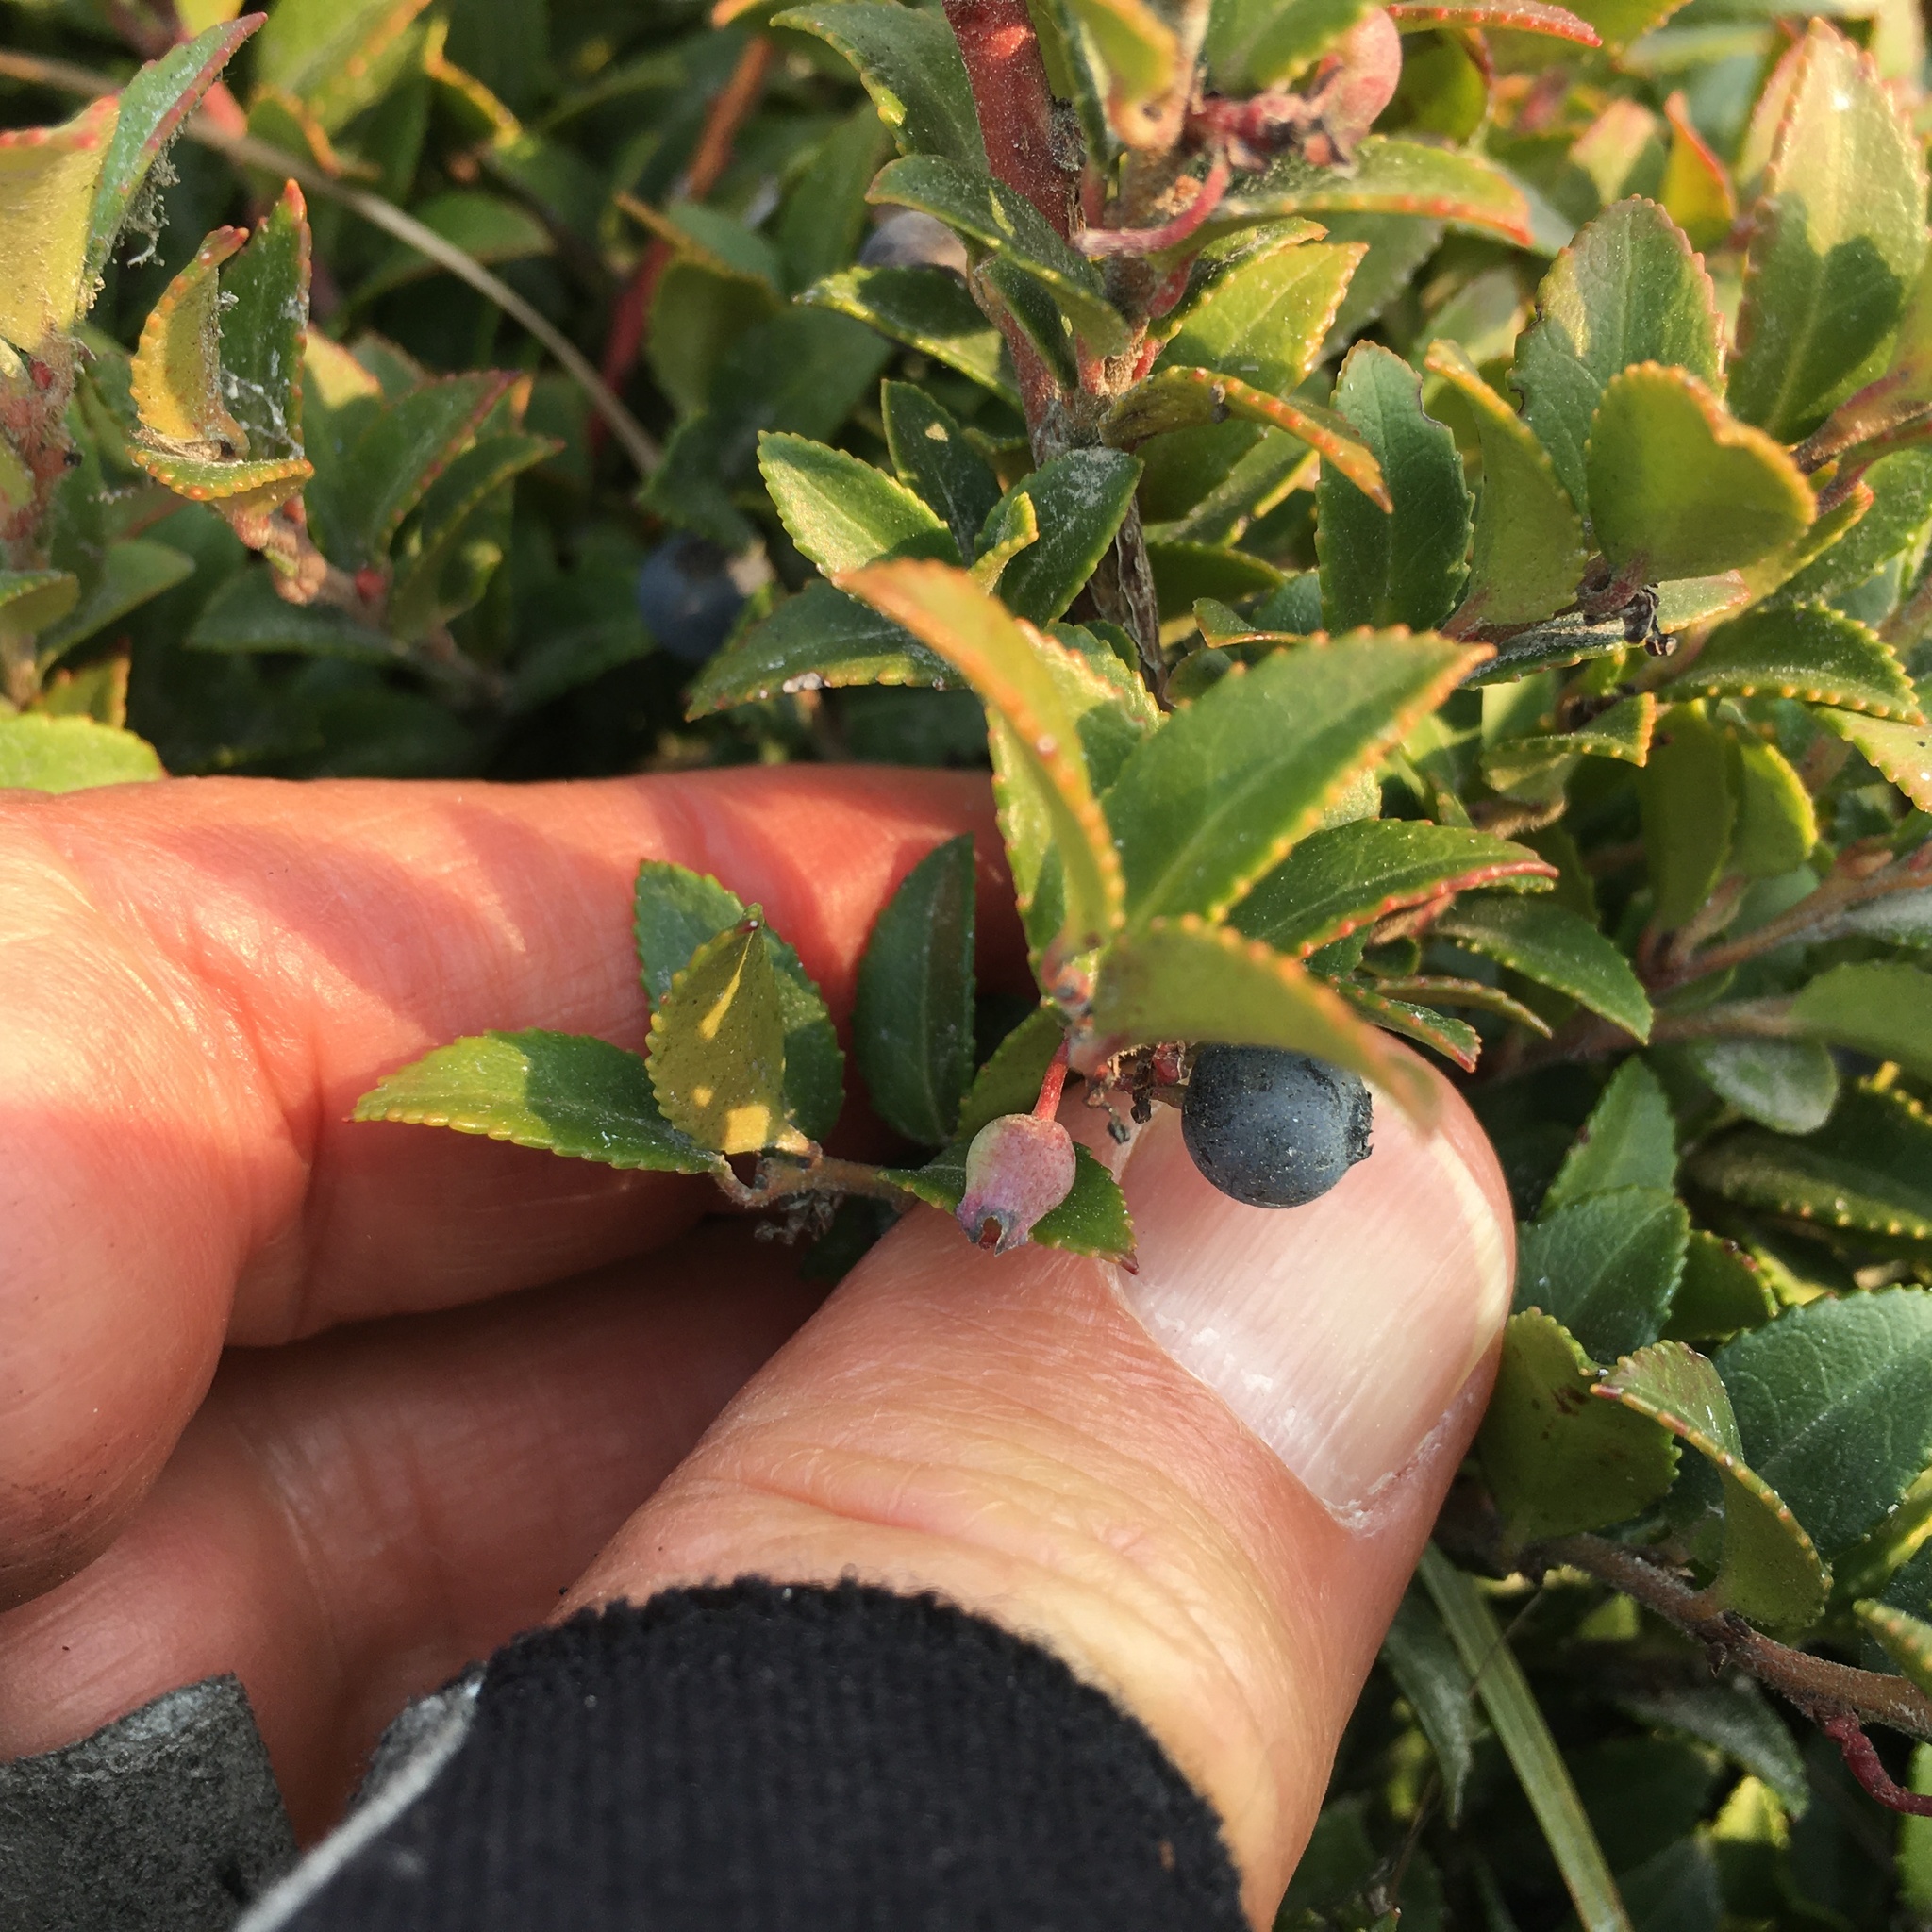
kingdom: Plantae
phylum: Tracheophyta
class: Magnoliopsida
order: Ericales
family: Ericaceae
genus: Vaccinium
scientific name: Vaccinium ovatum
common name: California-huckleberry
